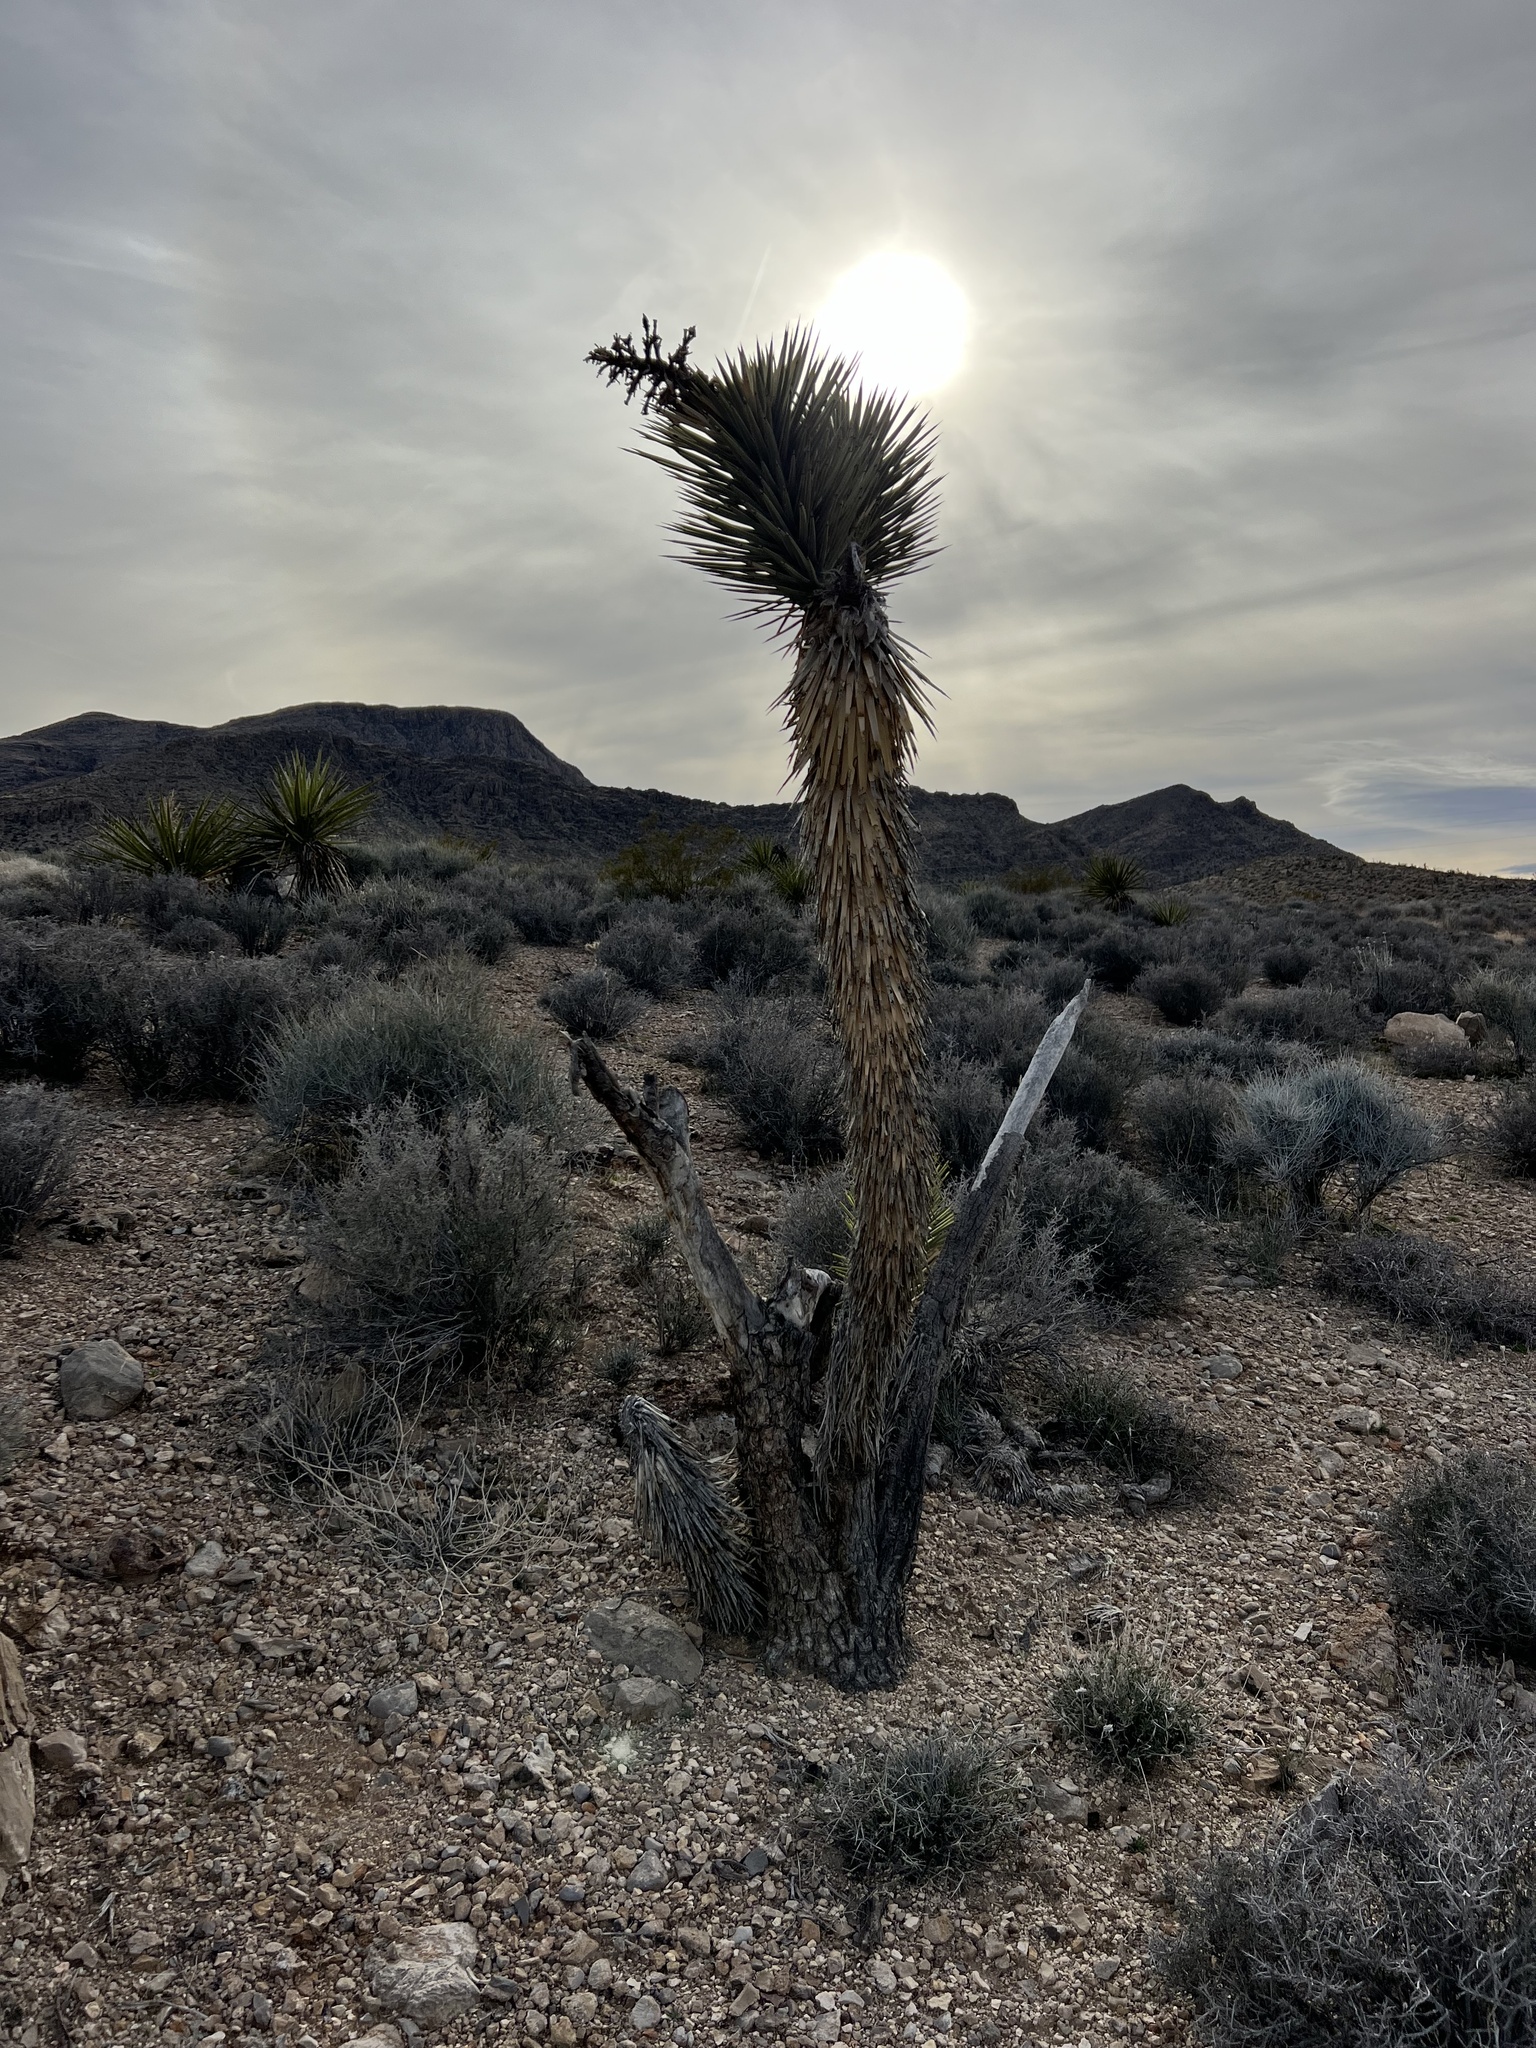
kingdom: Plantae
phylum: Tracheophyta
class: Liliopsida
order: Asparagales
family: Asparagaceae
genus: Yucca
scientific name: Yucca brevifolia
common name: Joshua tree
